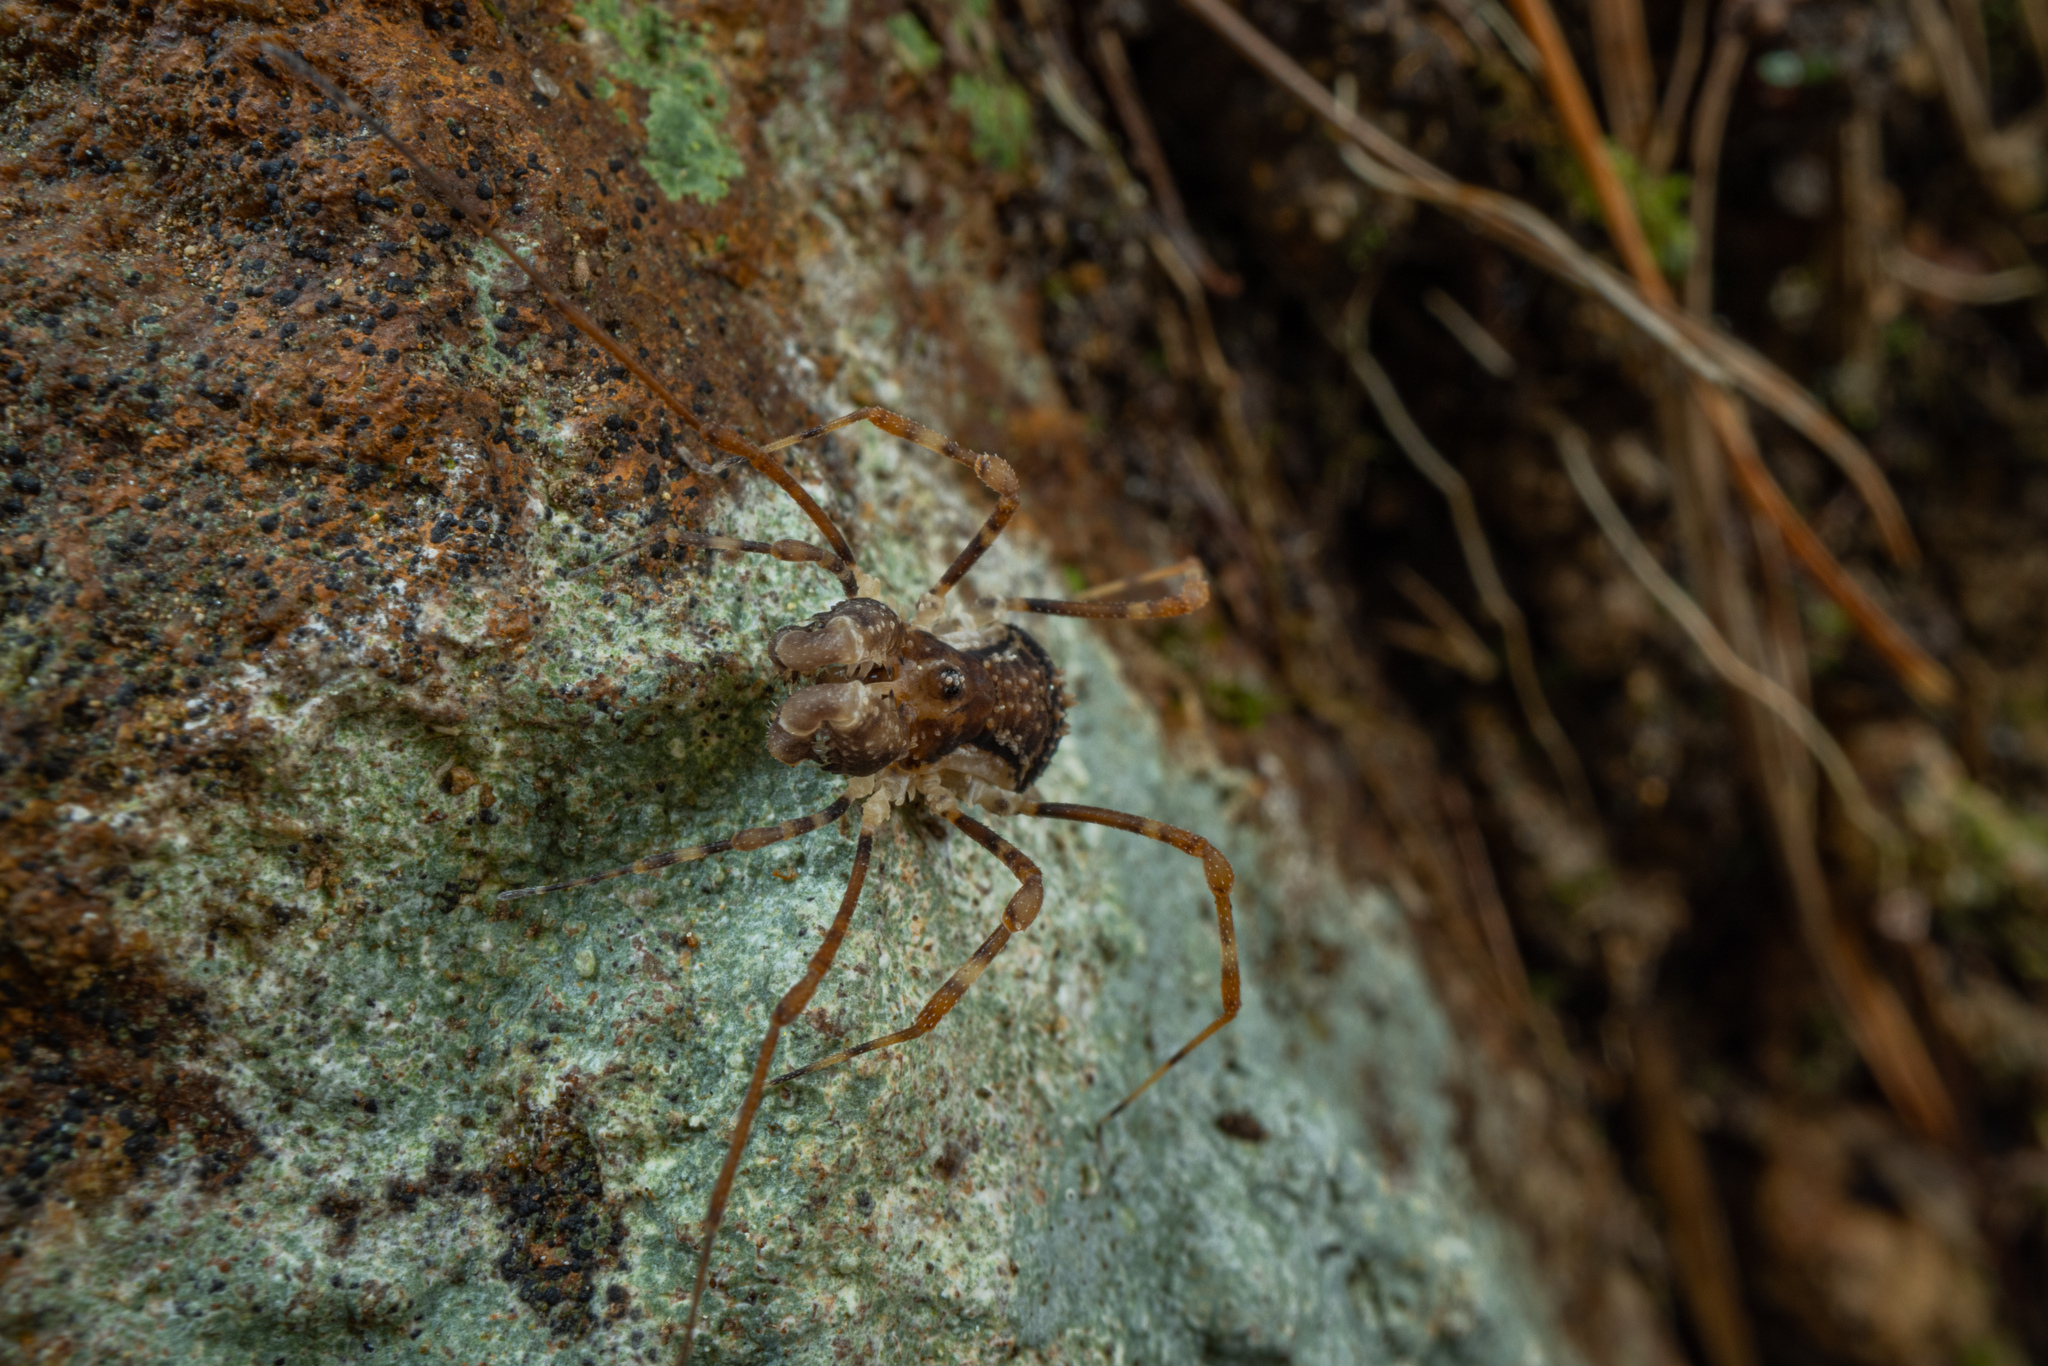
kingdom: Animalia
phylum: Arthropoda
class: Arachnida
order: Opiliones
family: Triaenonychidae
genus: Algidia
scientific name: Algidia chiltoni
